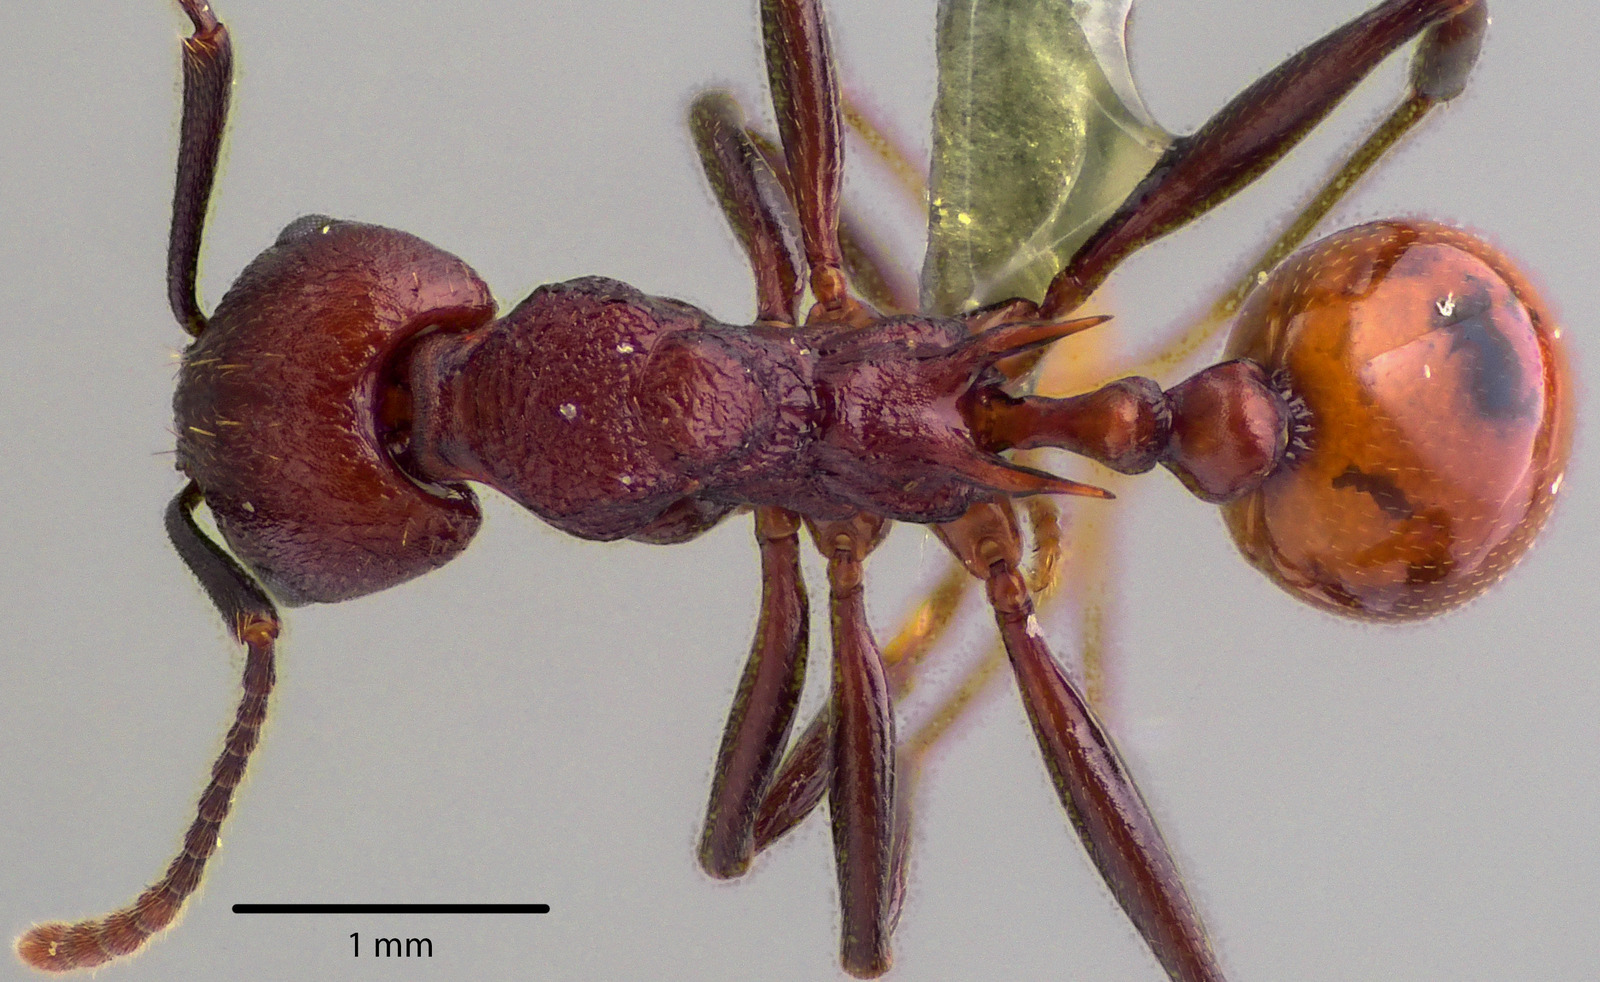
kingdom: Animalia
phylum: Arthropoda
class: Insecta
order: Hymenoptera
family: Formicidae
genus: Aphaenogaster
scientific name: Aphaenogaster tennesseensis
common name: Tennessee thread-waisted ant
